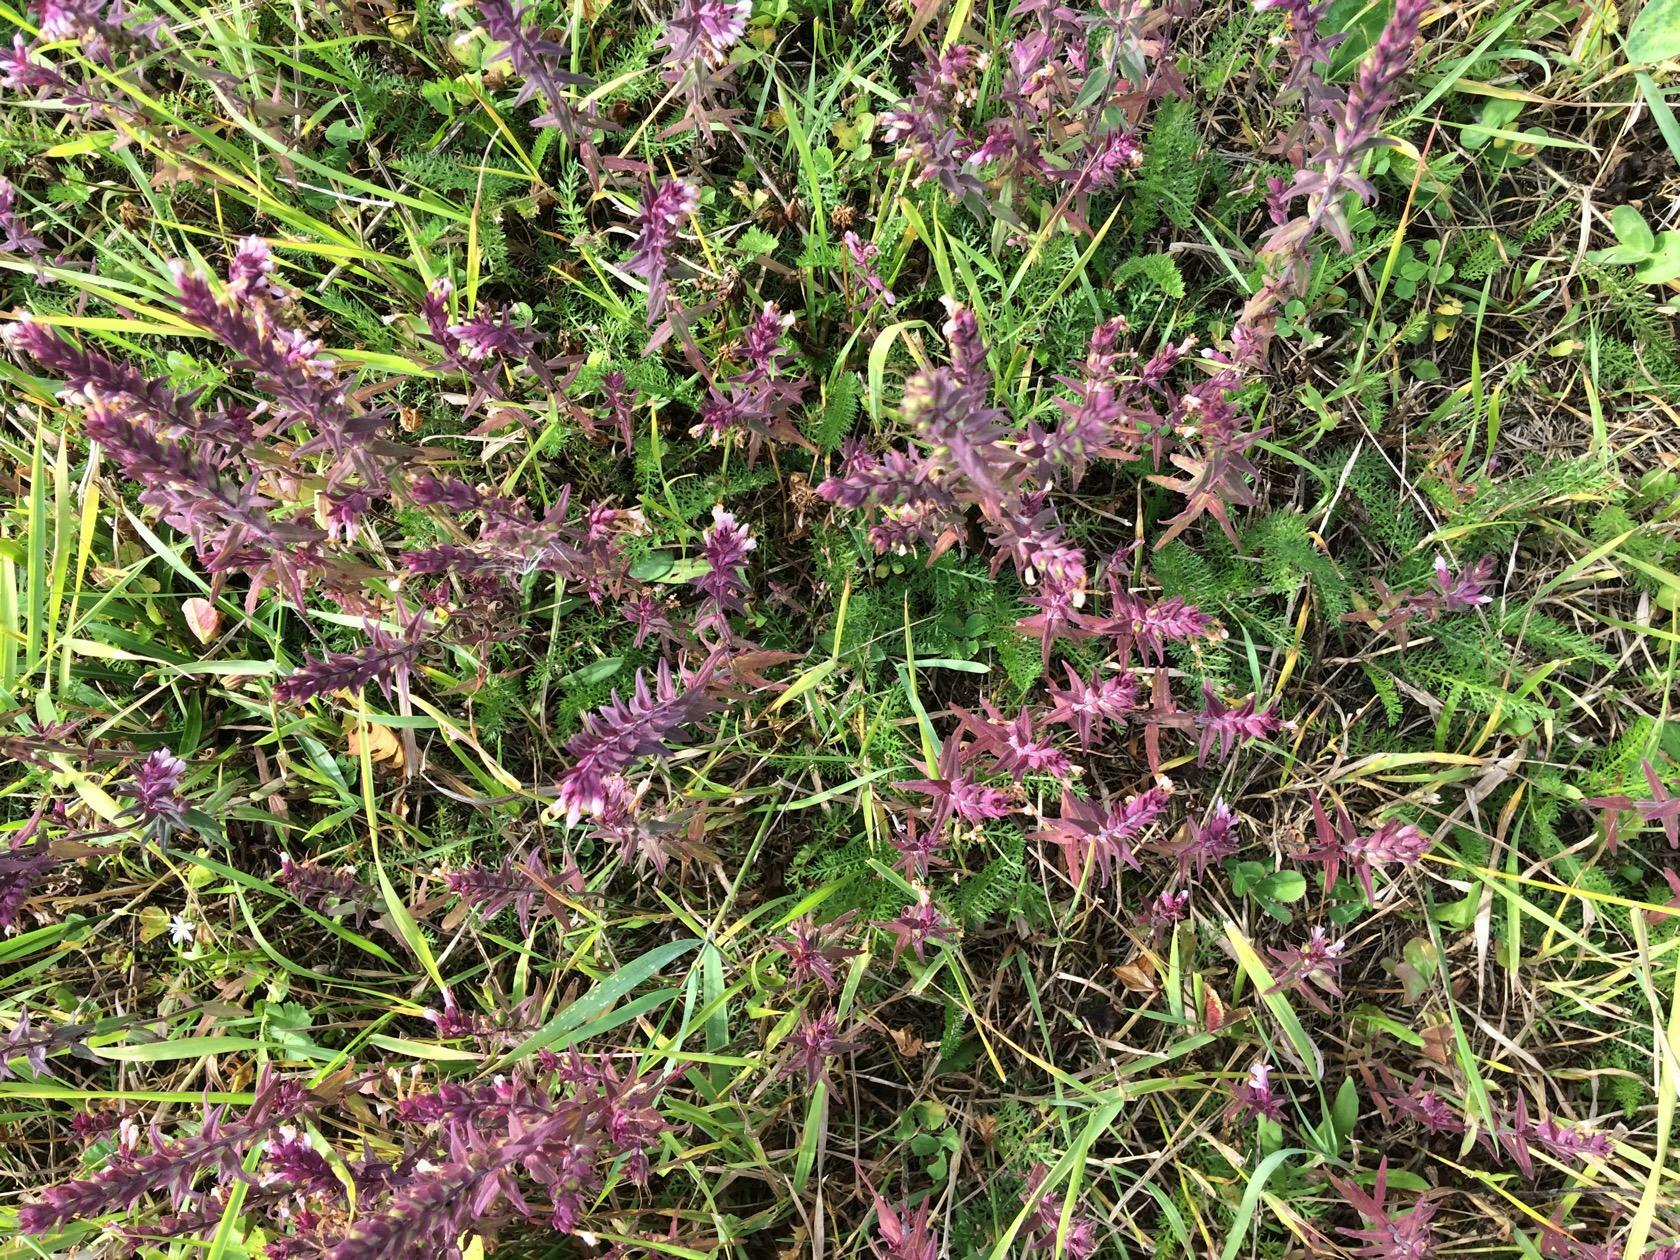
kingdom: Plantae
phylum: Tracheophyta
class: Magnoliopsida
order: Lamiales
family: Orobanchaceae
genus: Odontites
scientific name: Odontites vulgaris
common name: Broomrape
